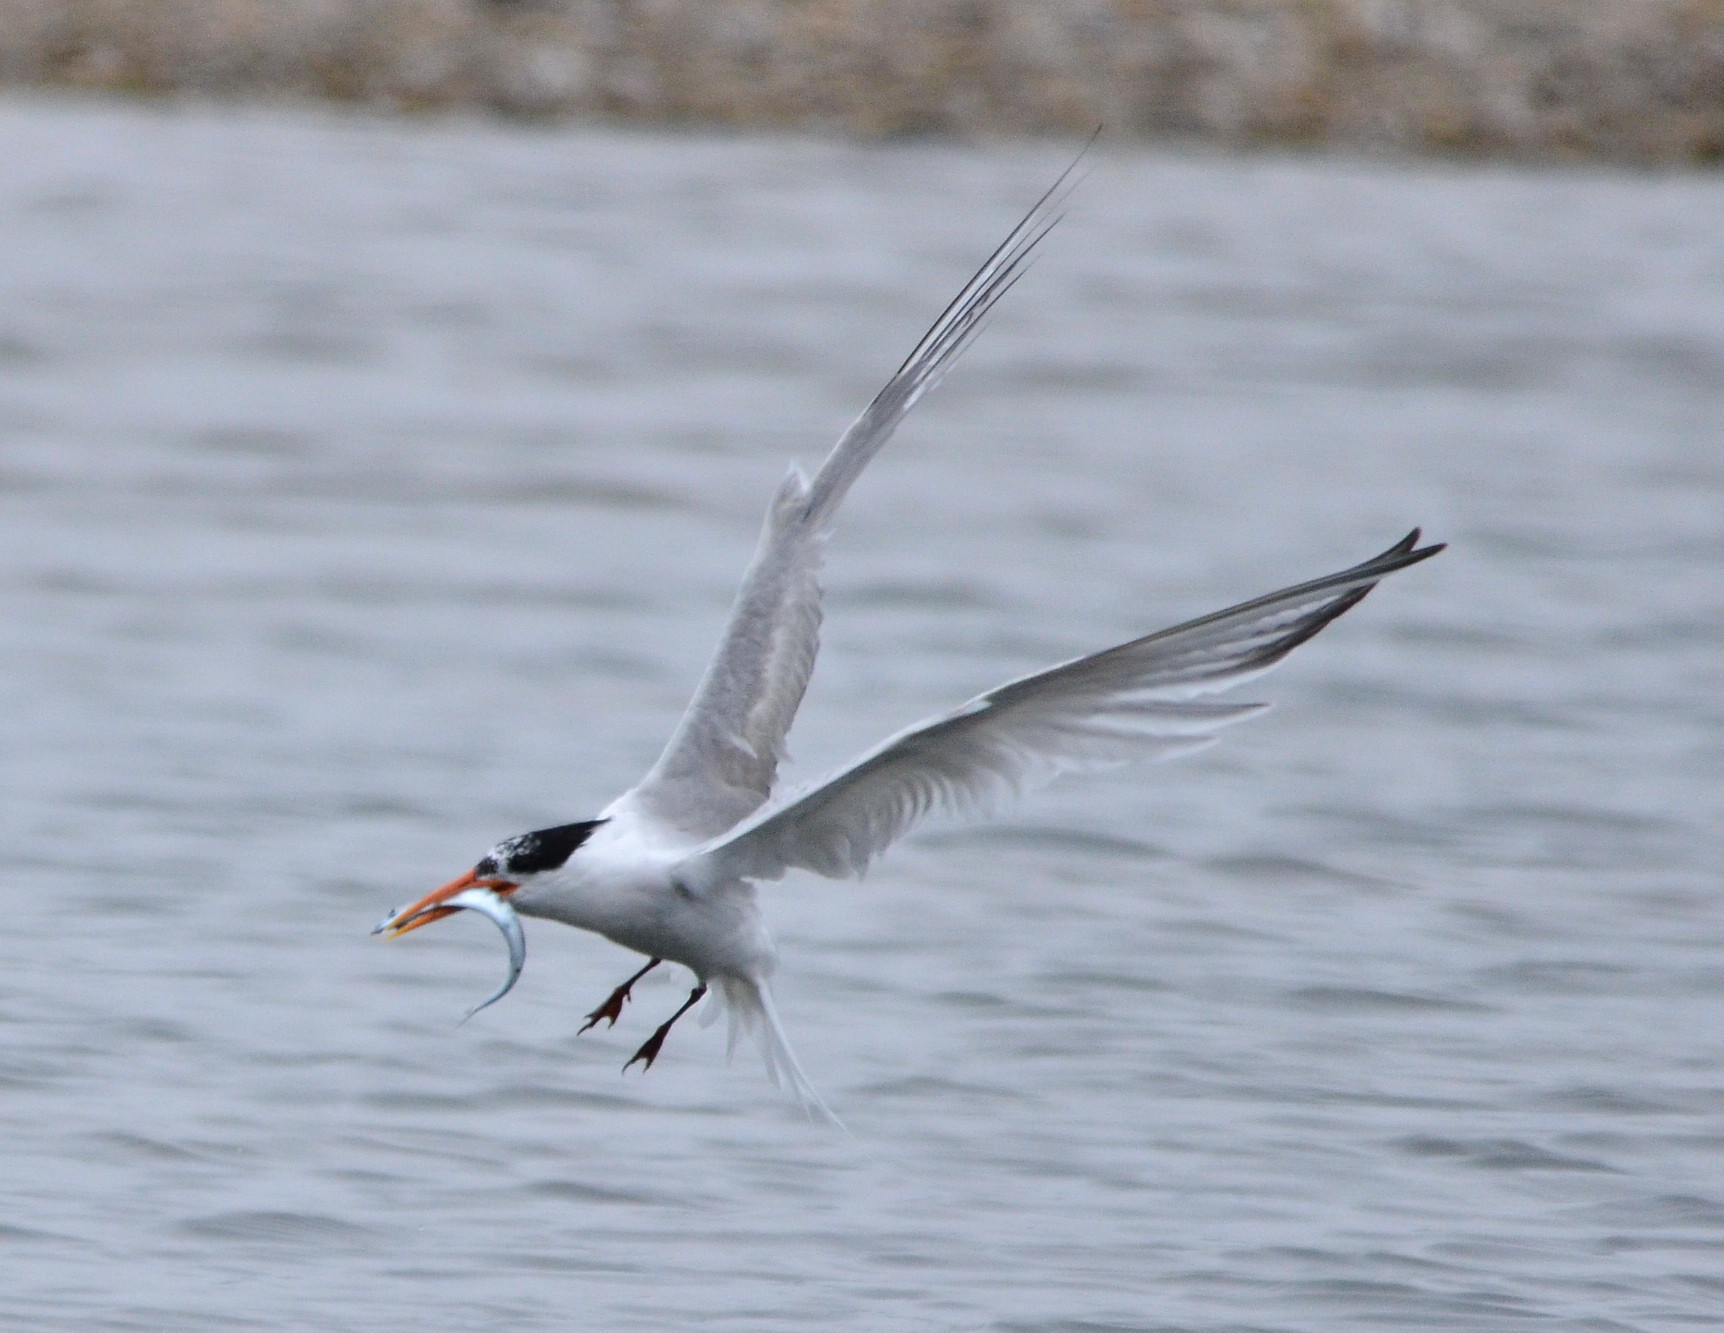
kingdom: Animalia
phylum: Chordata
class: Aves
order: Charadriiformes
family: Laridae
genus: Thalasseus
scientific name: Thalasseus elegans
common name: Elegant tern
